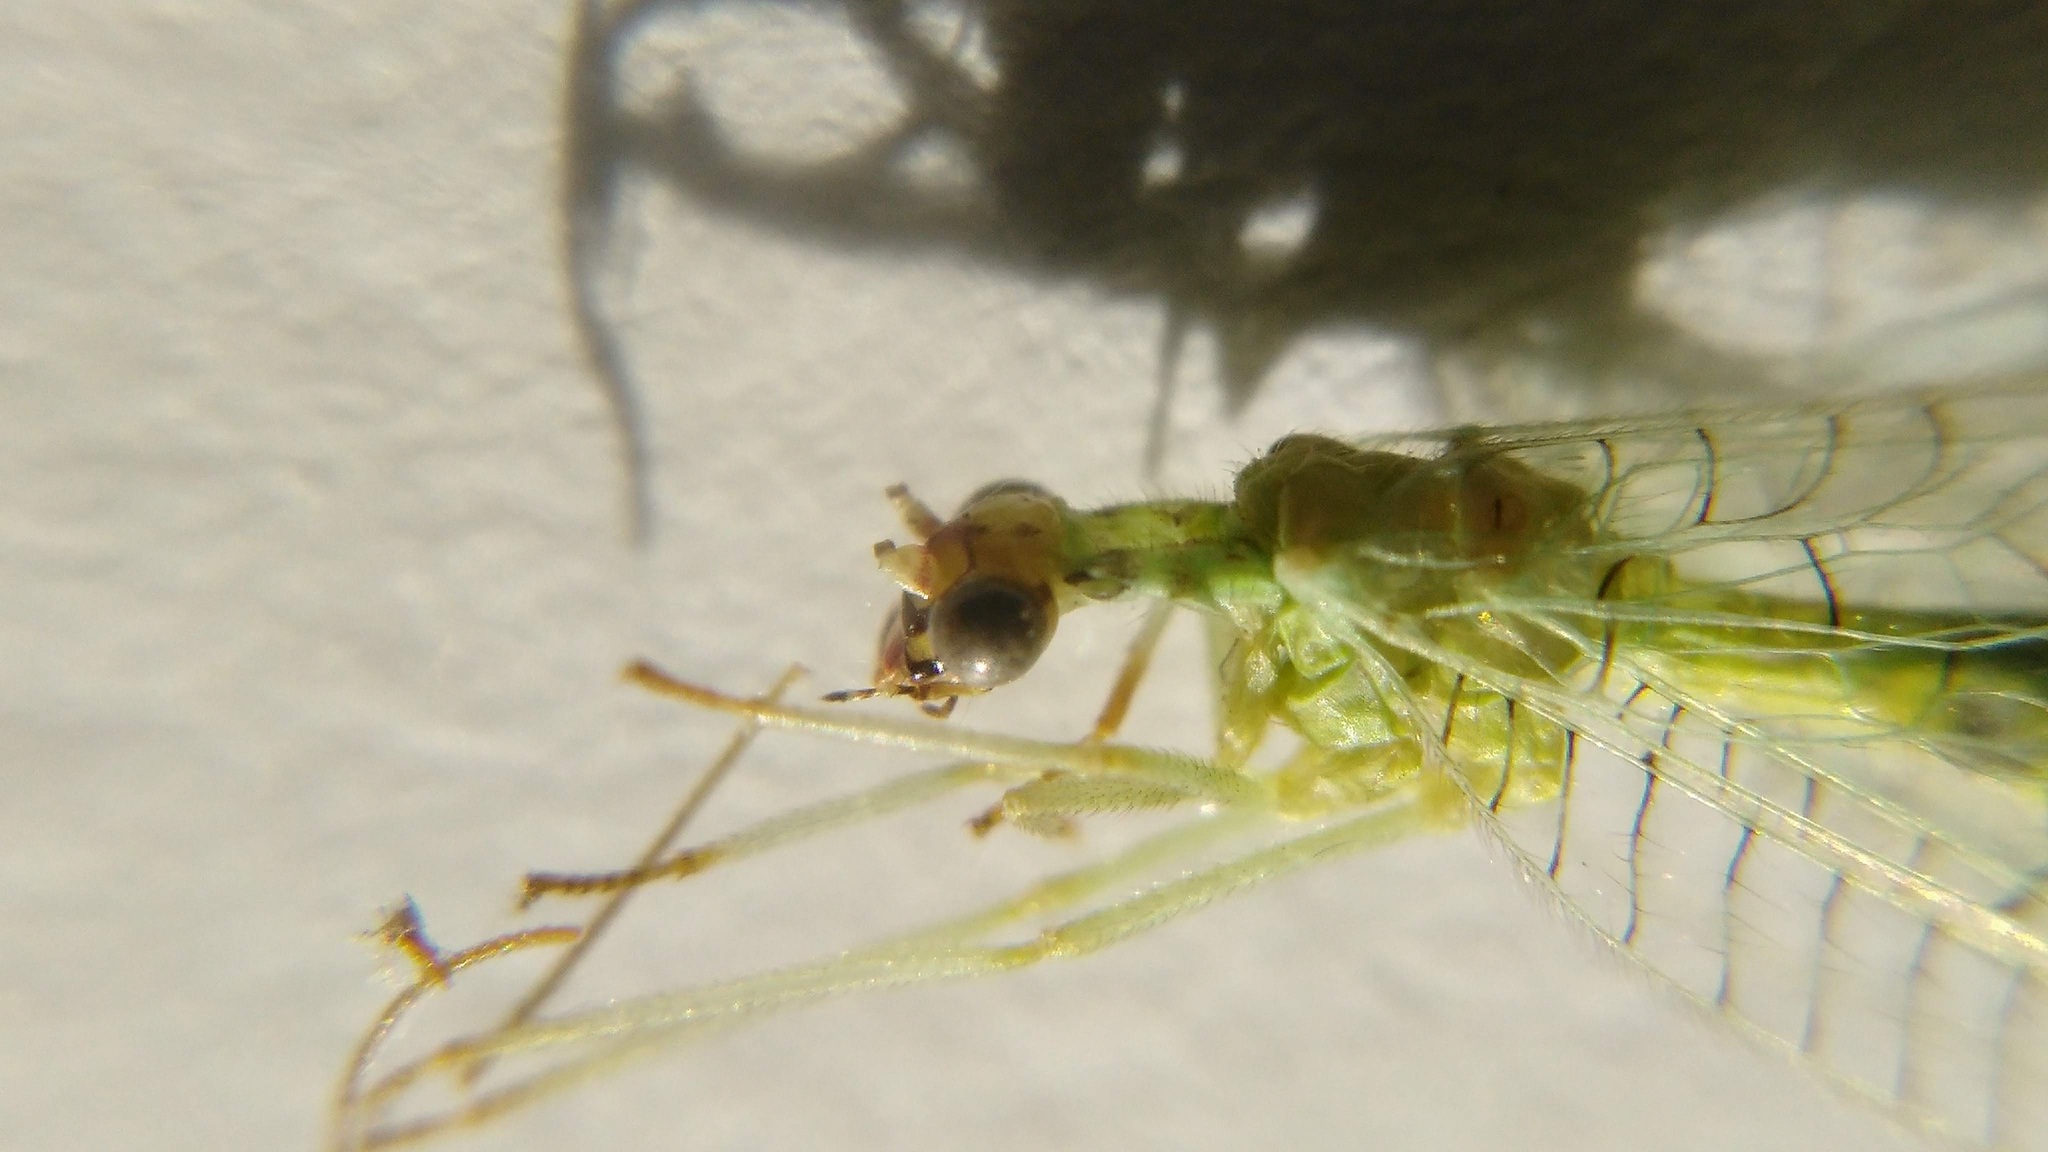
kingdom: Animalia
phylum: Arthropoda
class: Insecta
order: Neuroptera
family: Chrysopidae
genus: Chrysopa
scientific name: Chrysopa oculata
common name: Golden-eyed lacewing
